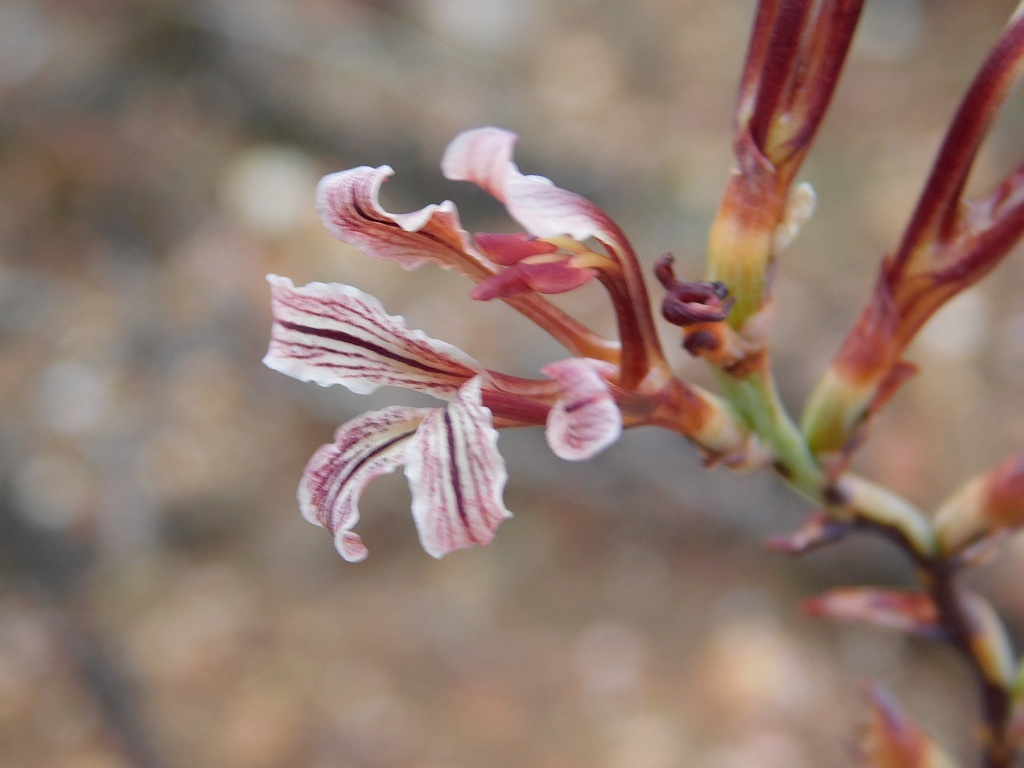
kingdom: Plantae
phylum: Tracheophyta
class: Liliopsida
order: Asparagales
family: Iridaceae
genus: Tritoniopsis
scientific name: Tritoniopsis elongata
